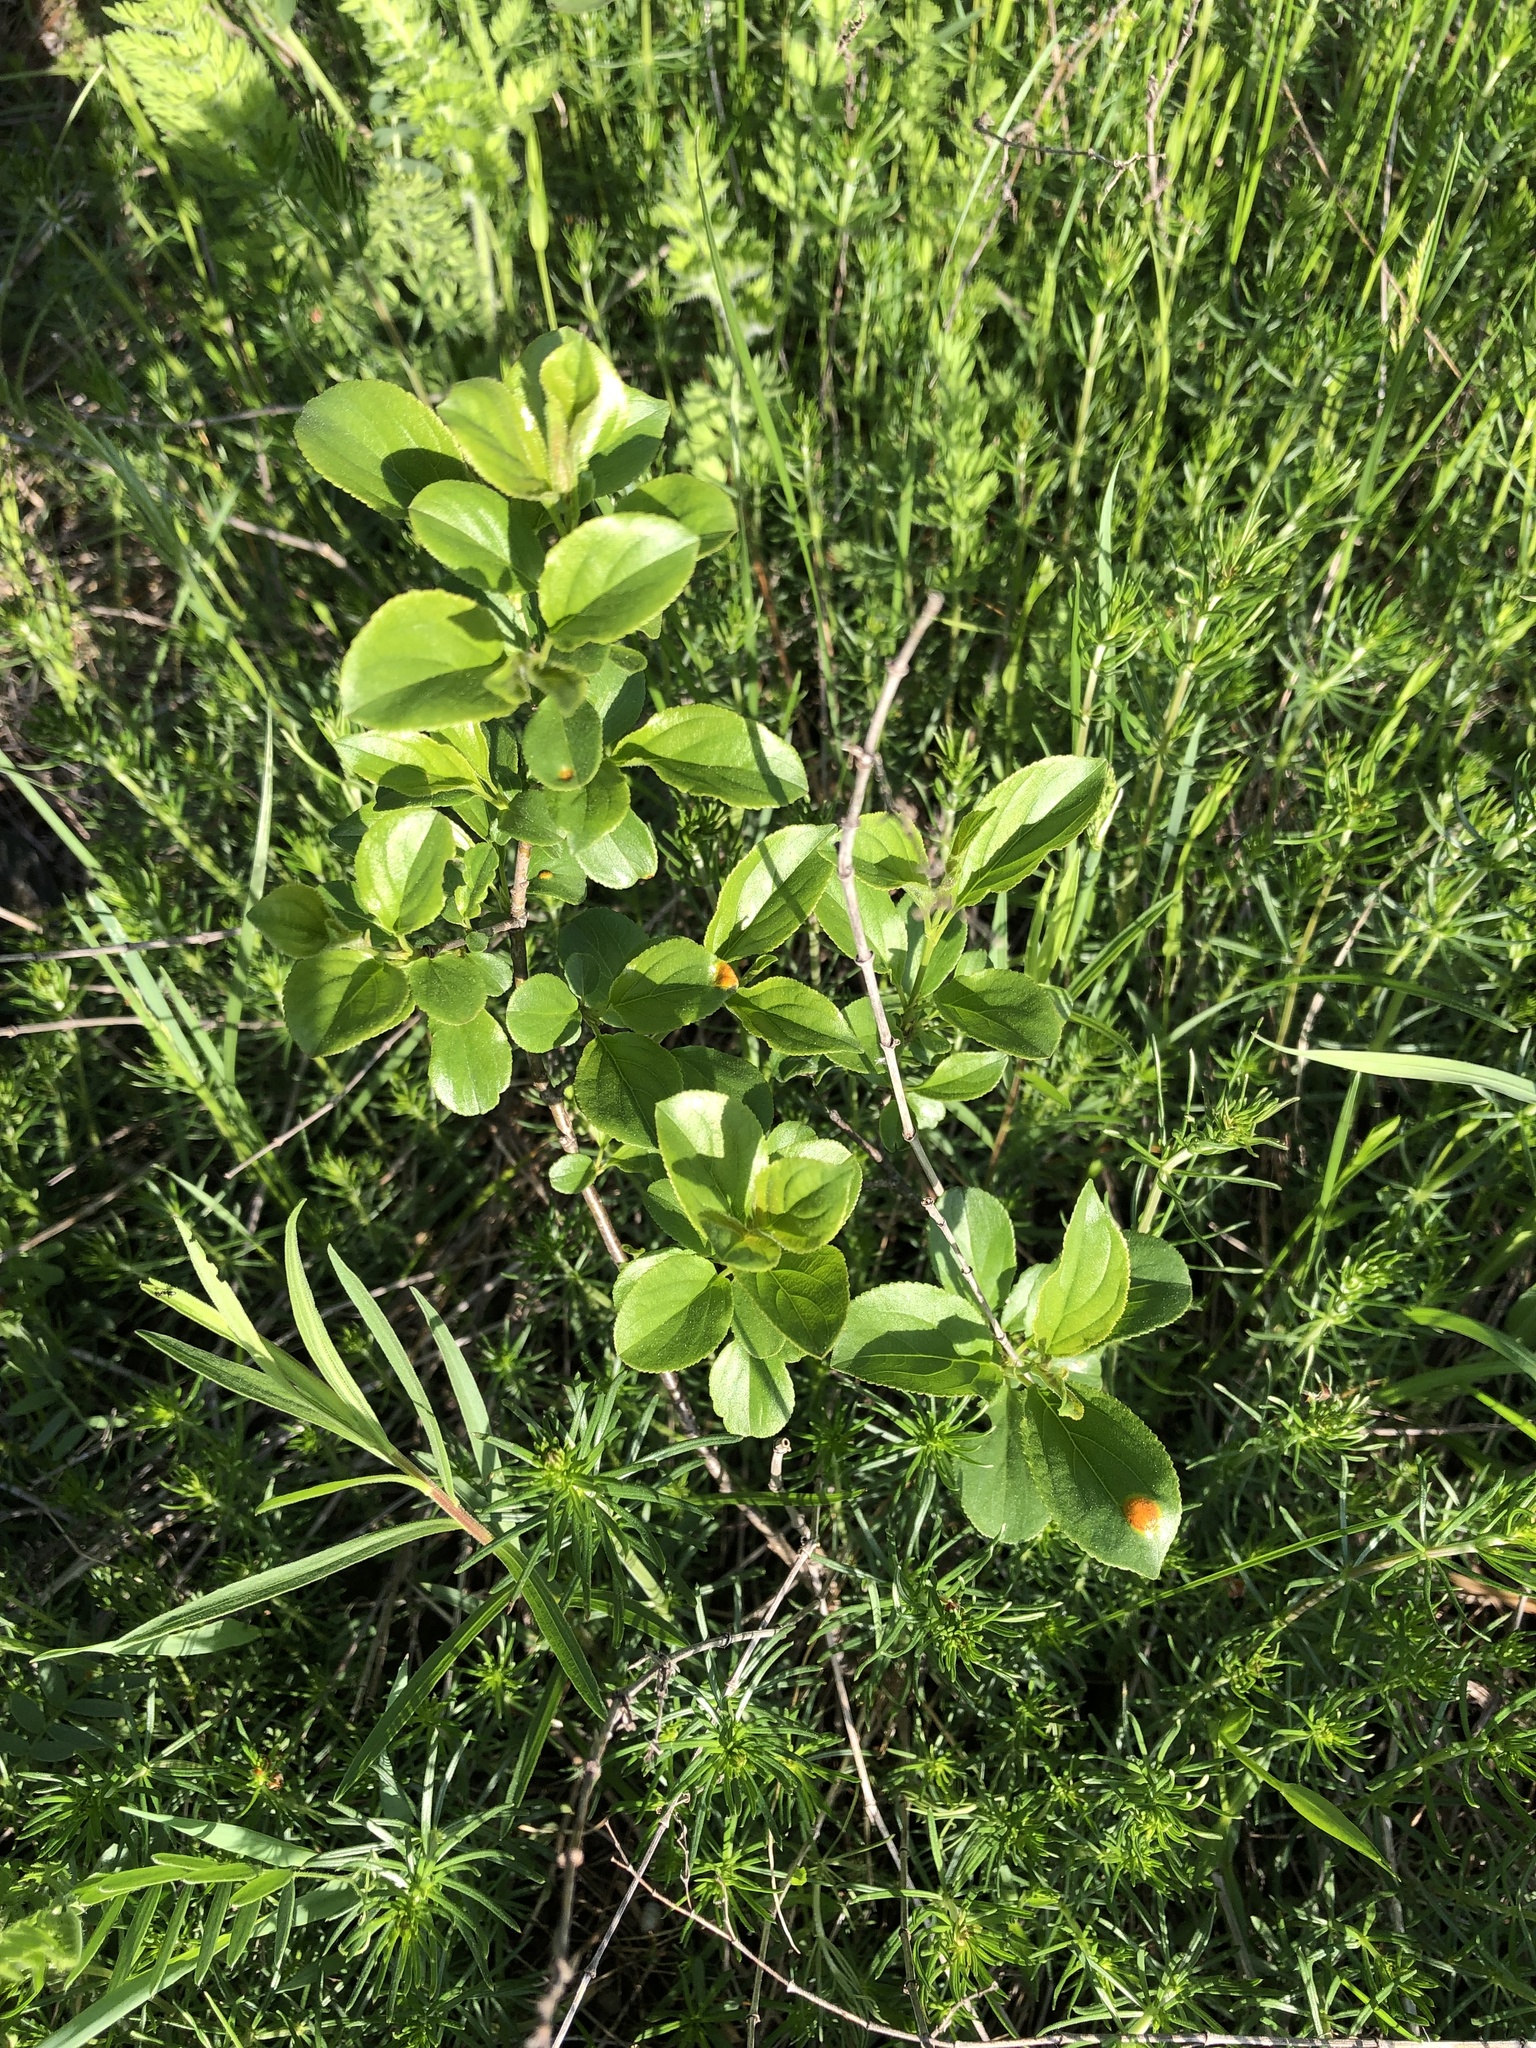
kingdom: Plantae
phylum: Tracheophyta
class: Magnoliopsida
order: Rosales
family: Rhamnaceae
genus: Rhamnus
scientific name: Rhamnus cathartica
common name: Common buckthorn
